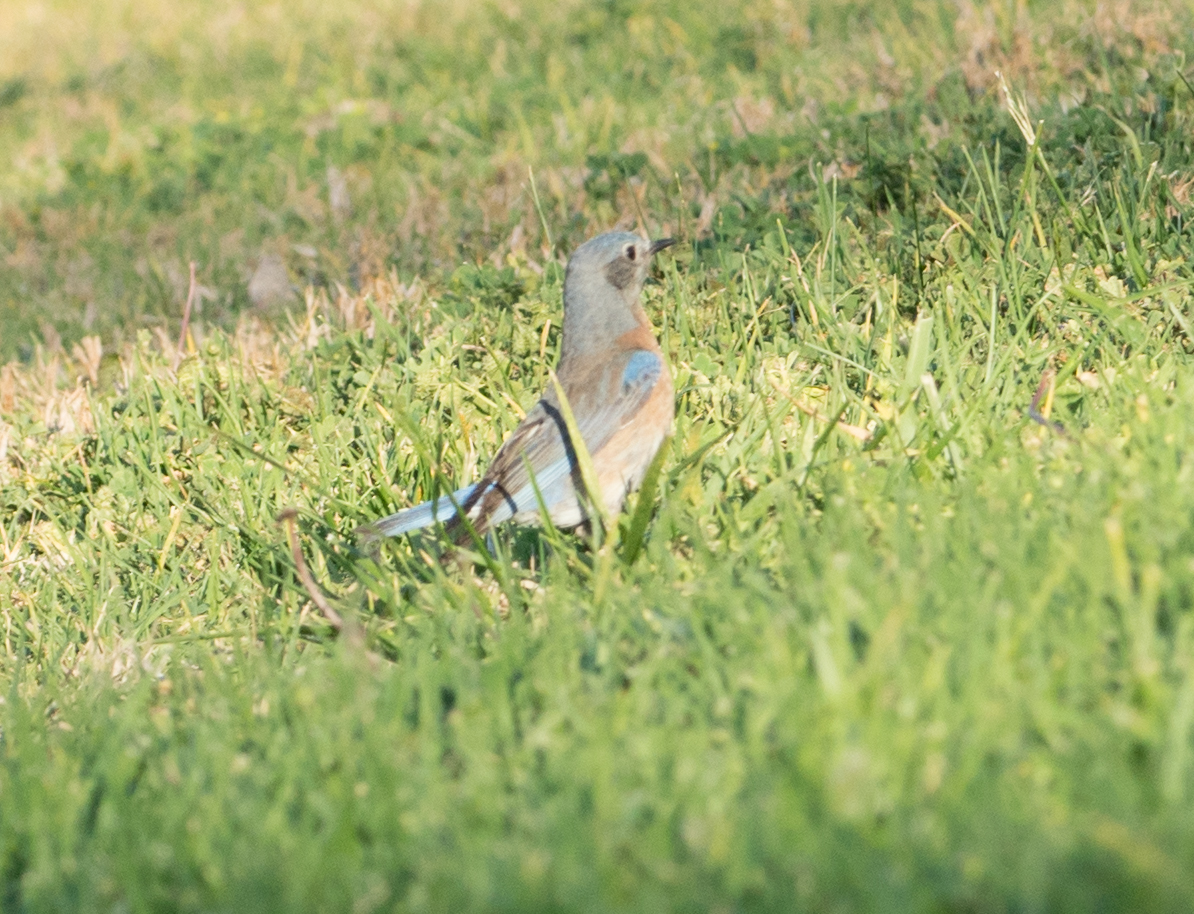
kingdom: Animalia
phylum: Chordata
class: Aves
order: Passeriformes
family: Turdidae
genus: Sialia
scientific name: Sialia mexicana
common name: Western bluebird
